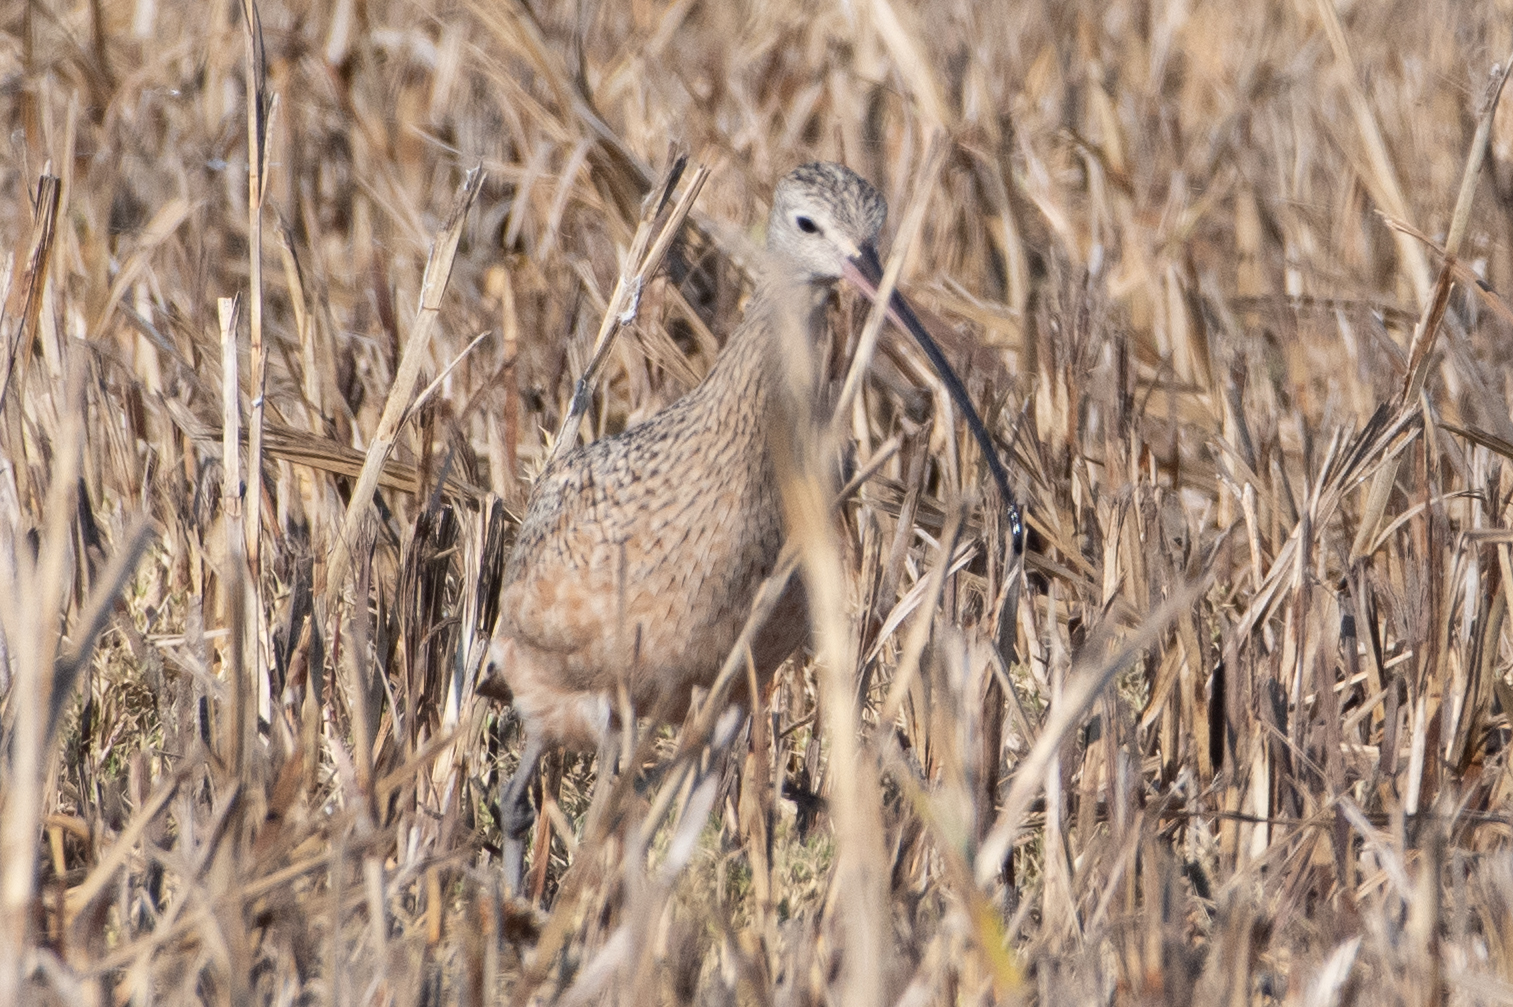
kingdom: Animalia
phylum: Chordata
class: Aves
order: Charadriiformes
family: Scolopacidae
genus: Numenius
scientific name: Numenius americanus
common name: Long-billed curlew
